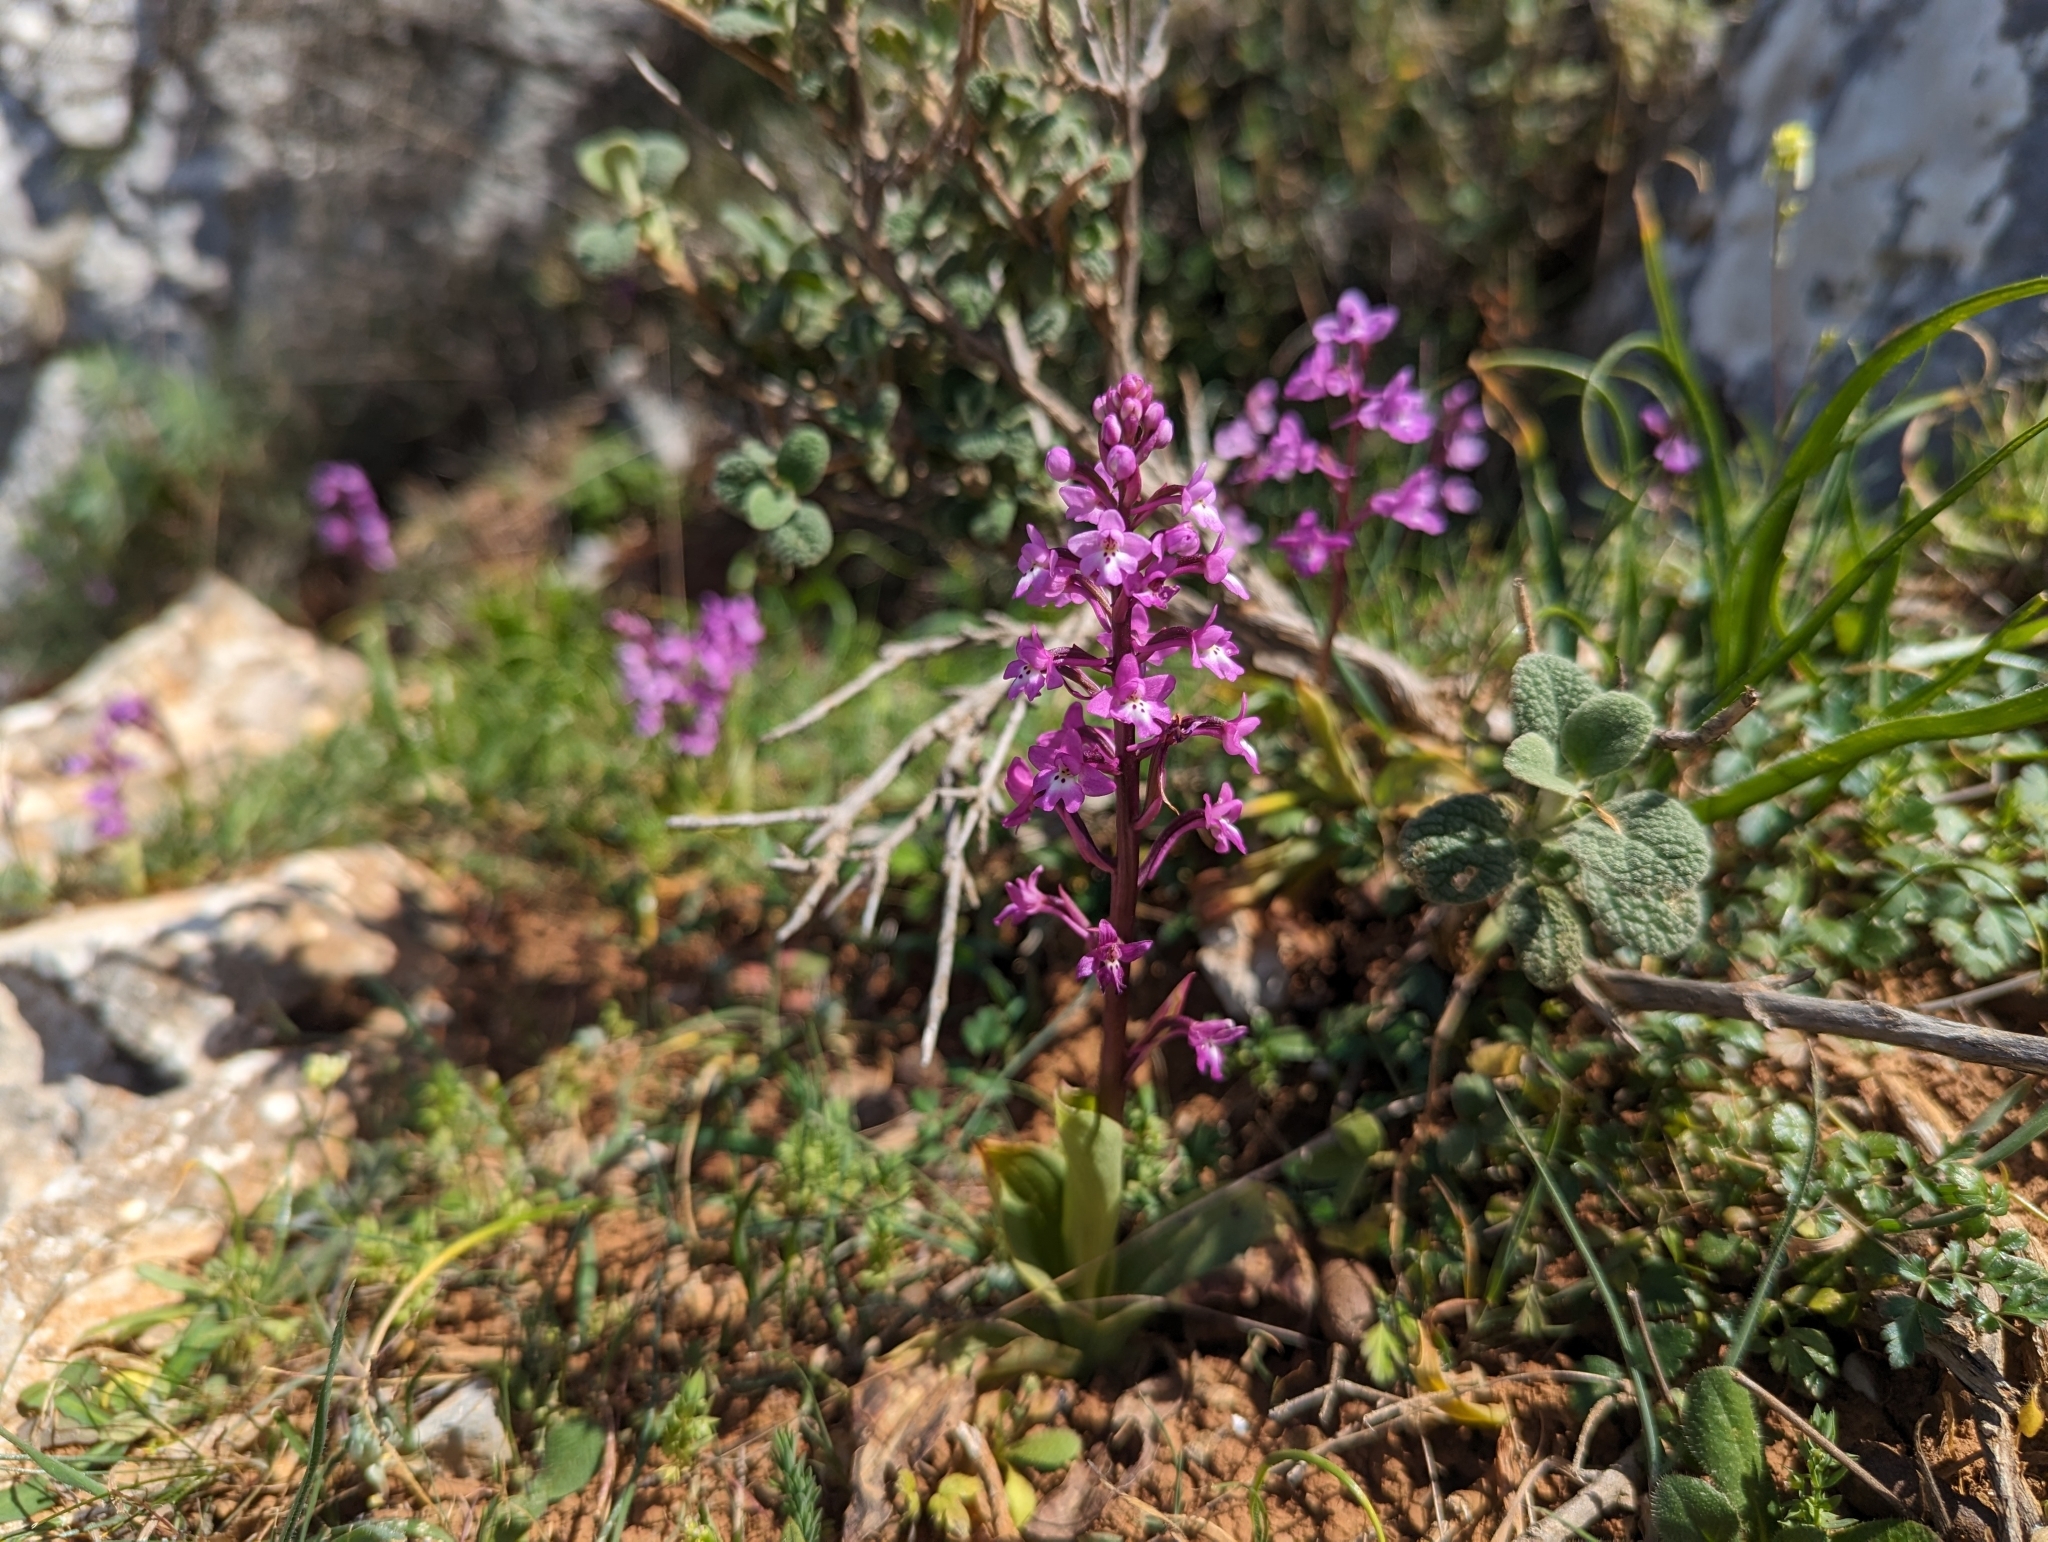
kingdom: Plantae
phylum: Tracheophyta
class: Liliopsida
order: Asparagales
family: Orchidaceae
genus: Orchis
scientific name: Orchis quadripunctata
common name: Four-spotted orchid
